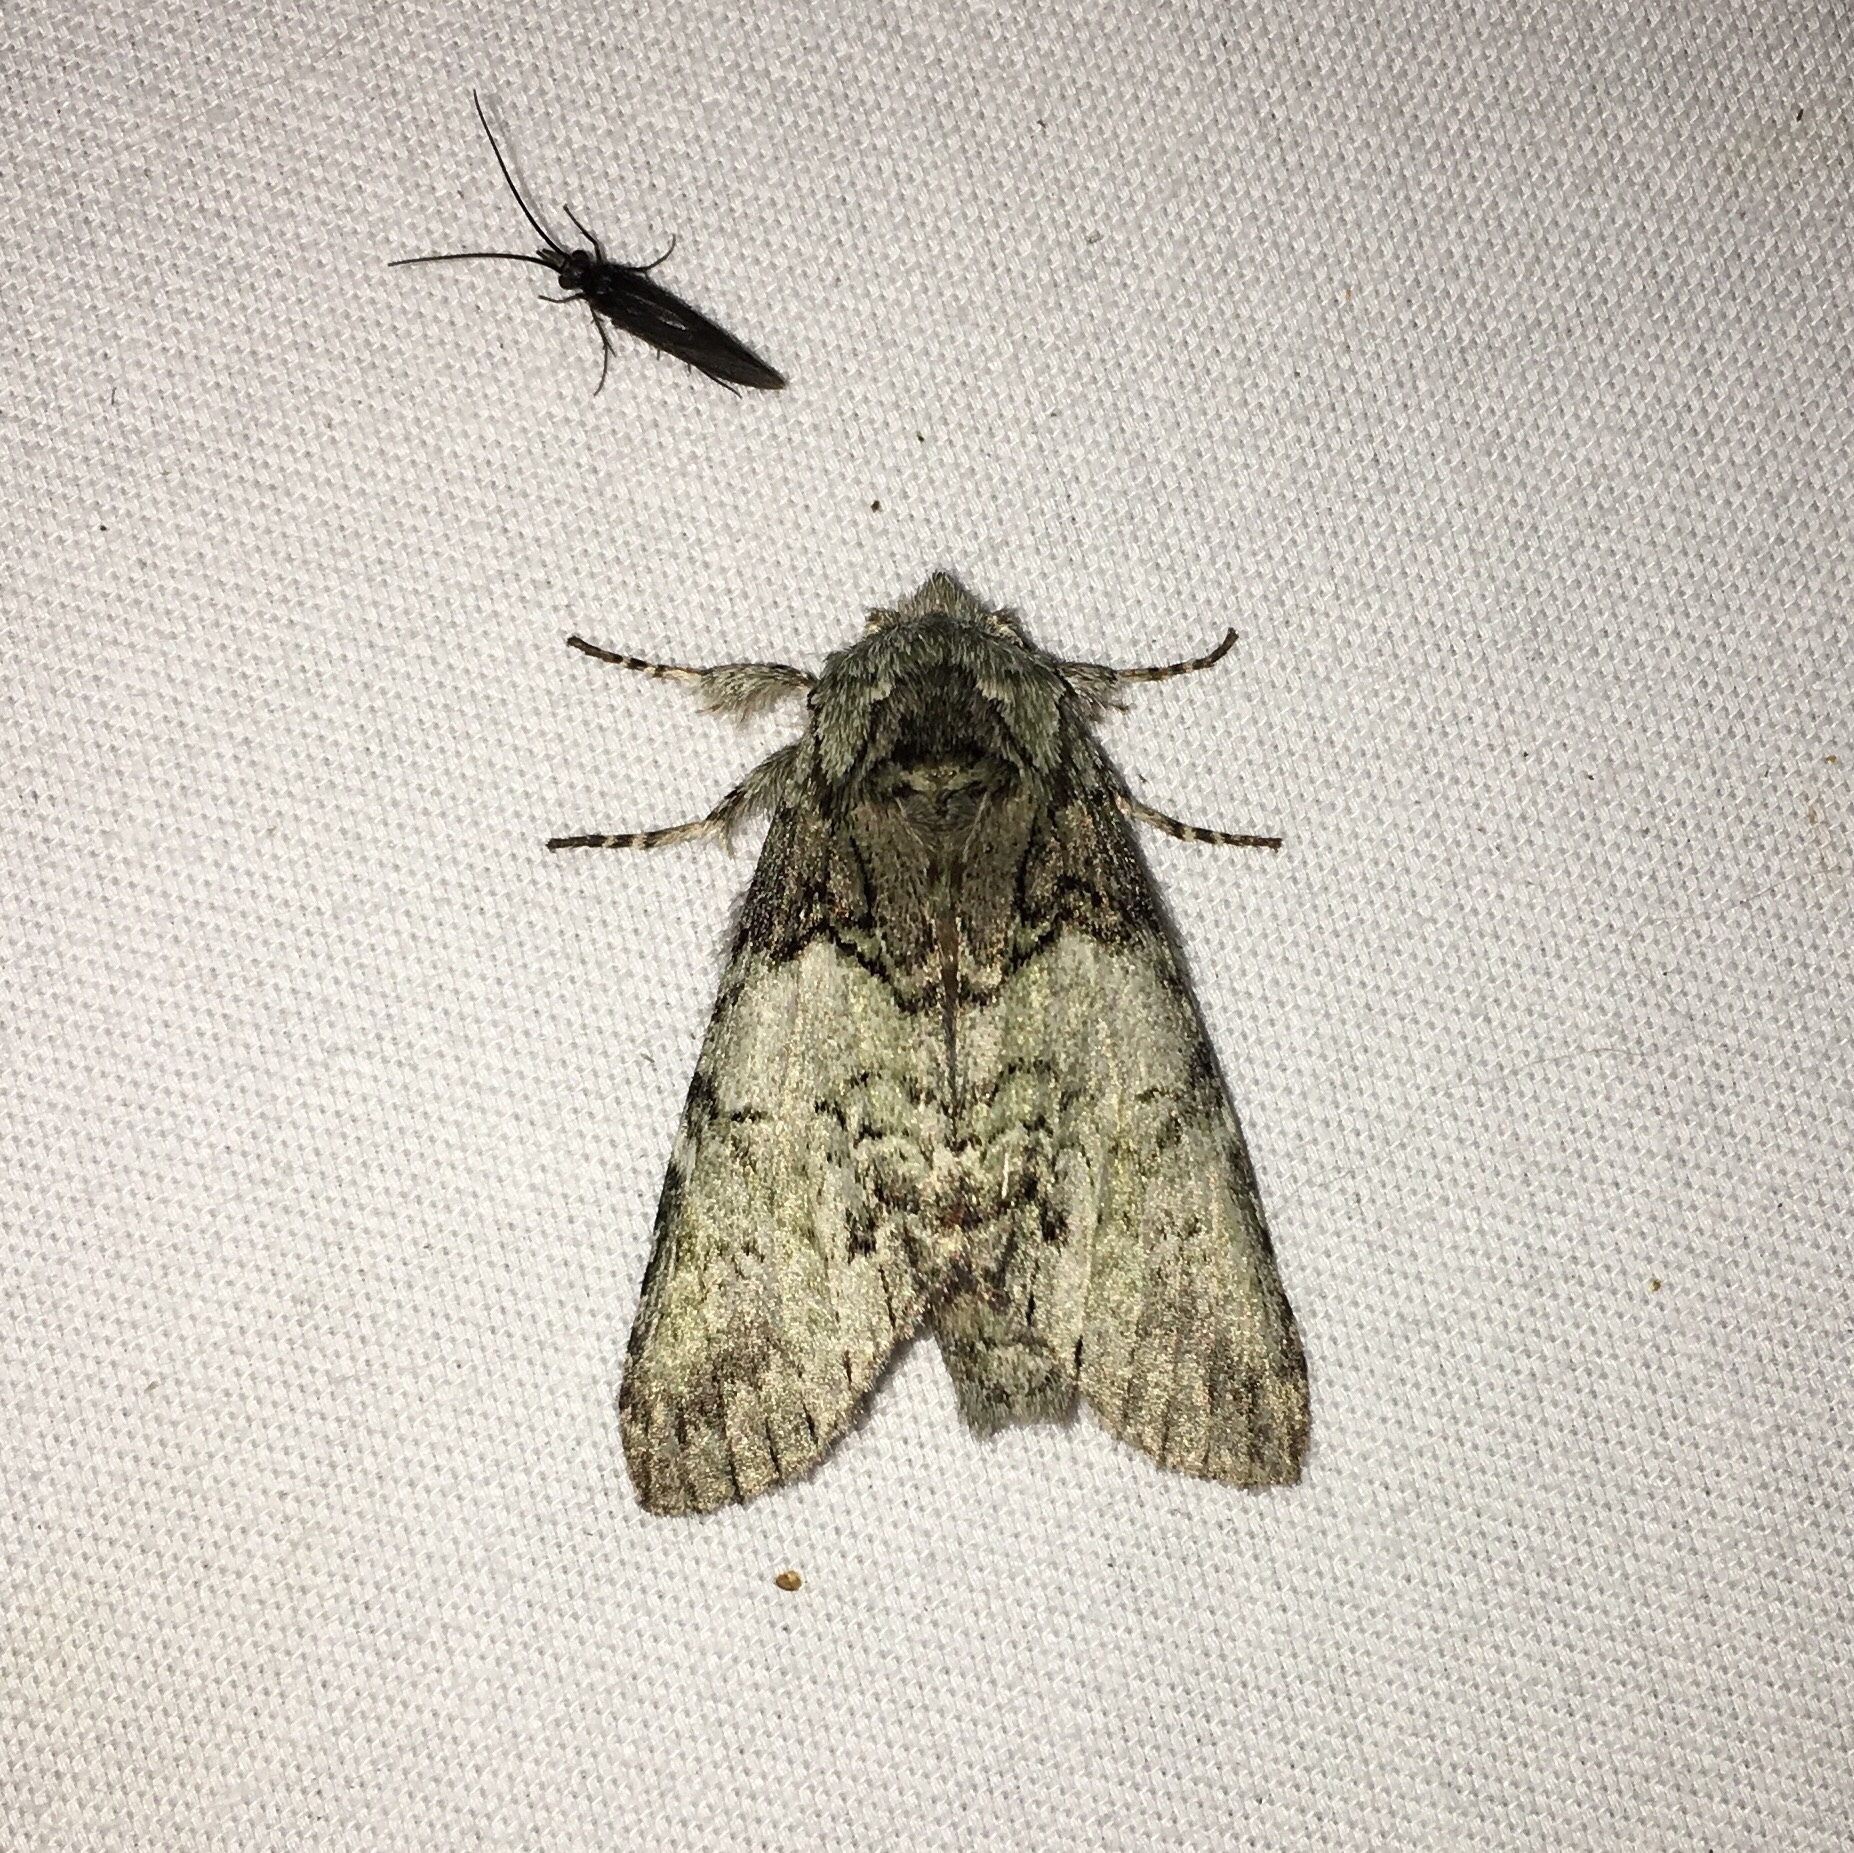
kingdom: Animalia
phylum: Arthropoda
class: Insecta
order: Lepidoptera
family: Notodontidae
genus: Macrurocampa
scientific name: Macrurocampa marthesia
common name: Mottled prominent
